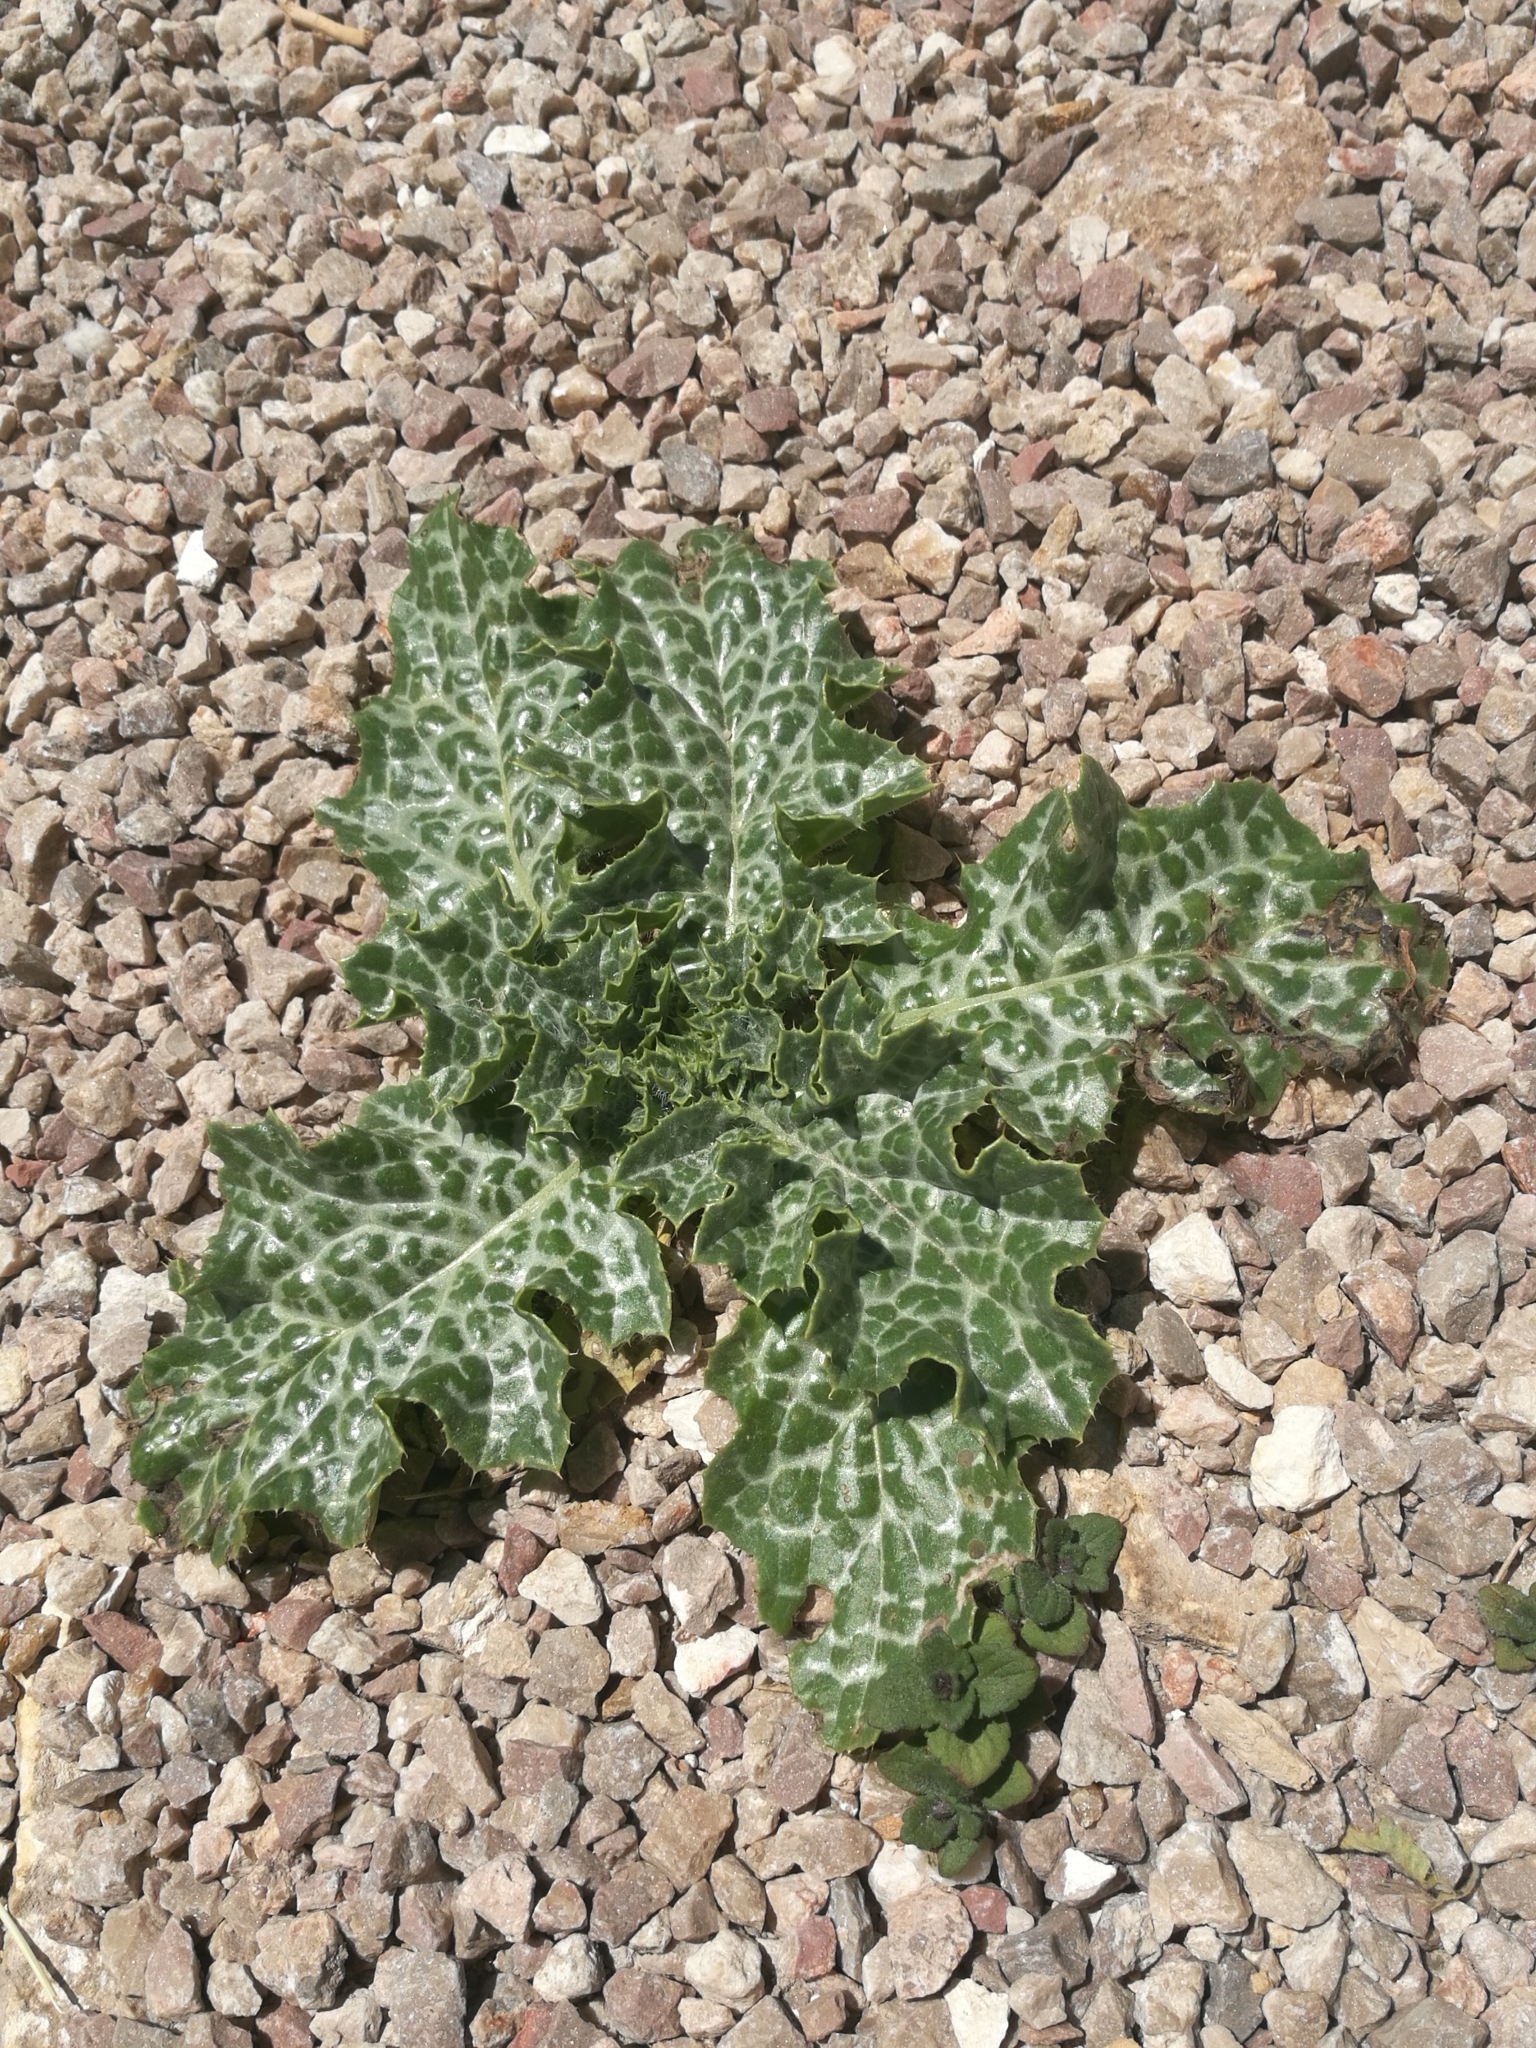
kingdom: Plantae
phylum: Tracheophyta
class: Magnoliopsida
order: Asterales
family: Asteraceae
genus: Silybum
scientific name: Silybum marianum
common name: Milk thistle
